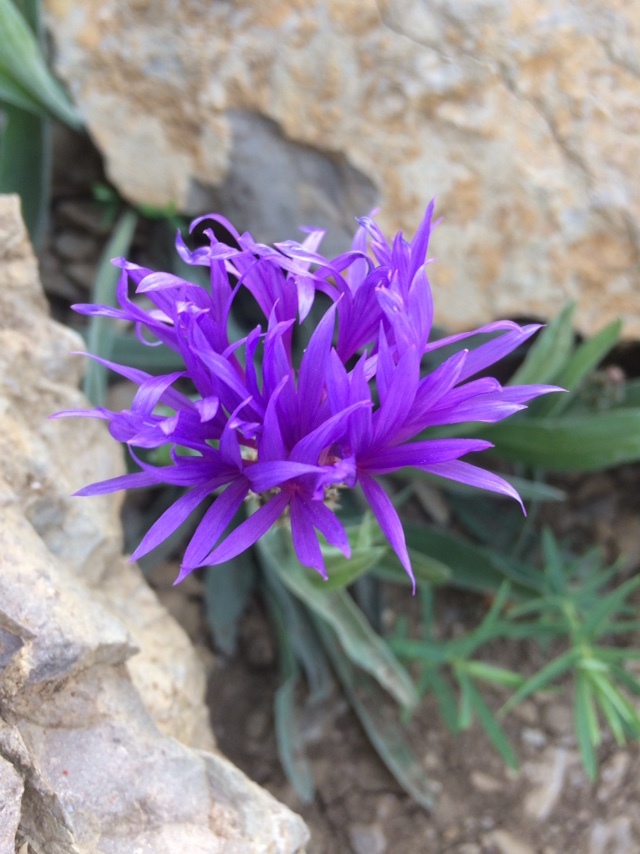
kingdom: Plantae
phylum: Tracheophyta
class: Magnoliopsida
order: Asterales
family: Asteraceae
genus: Centaurea
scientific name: Centaurea fuscomarginata
